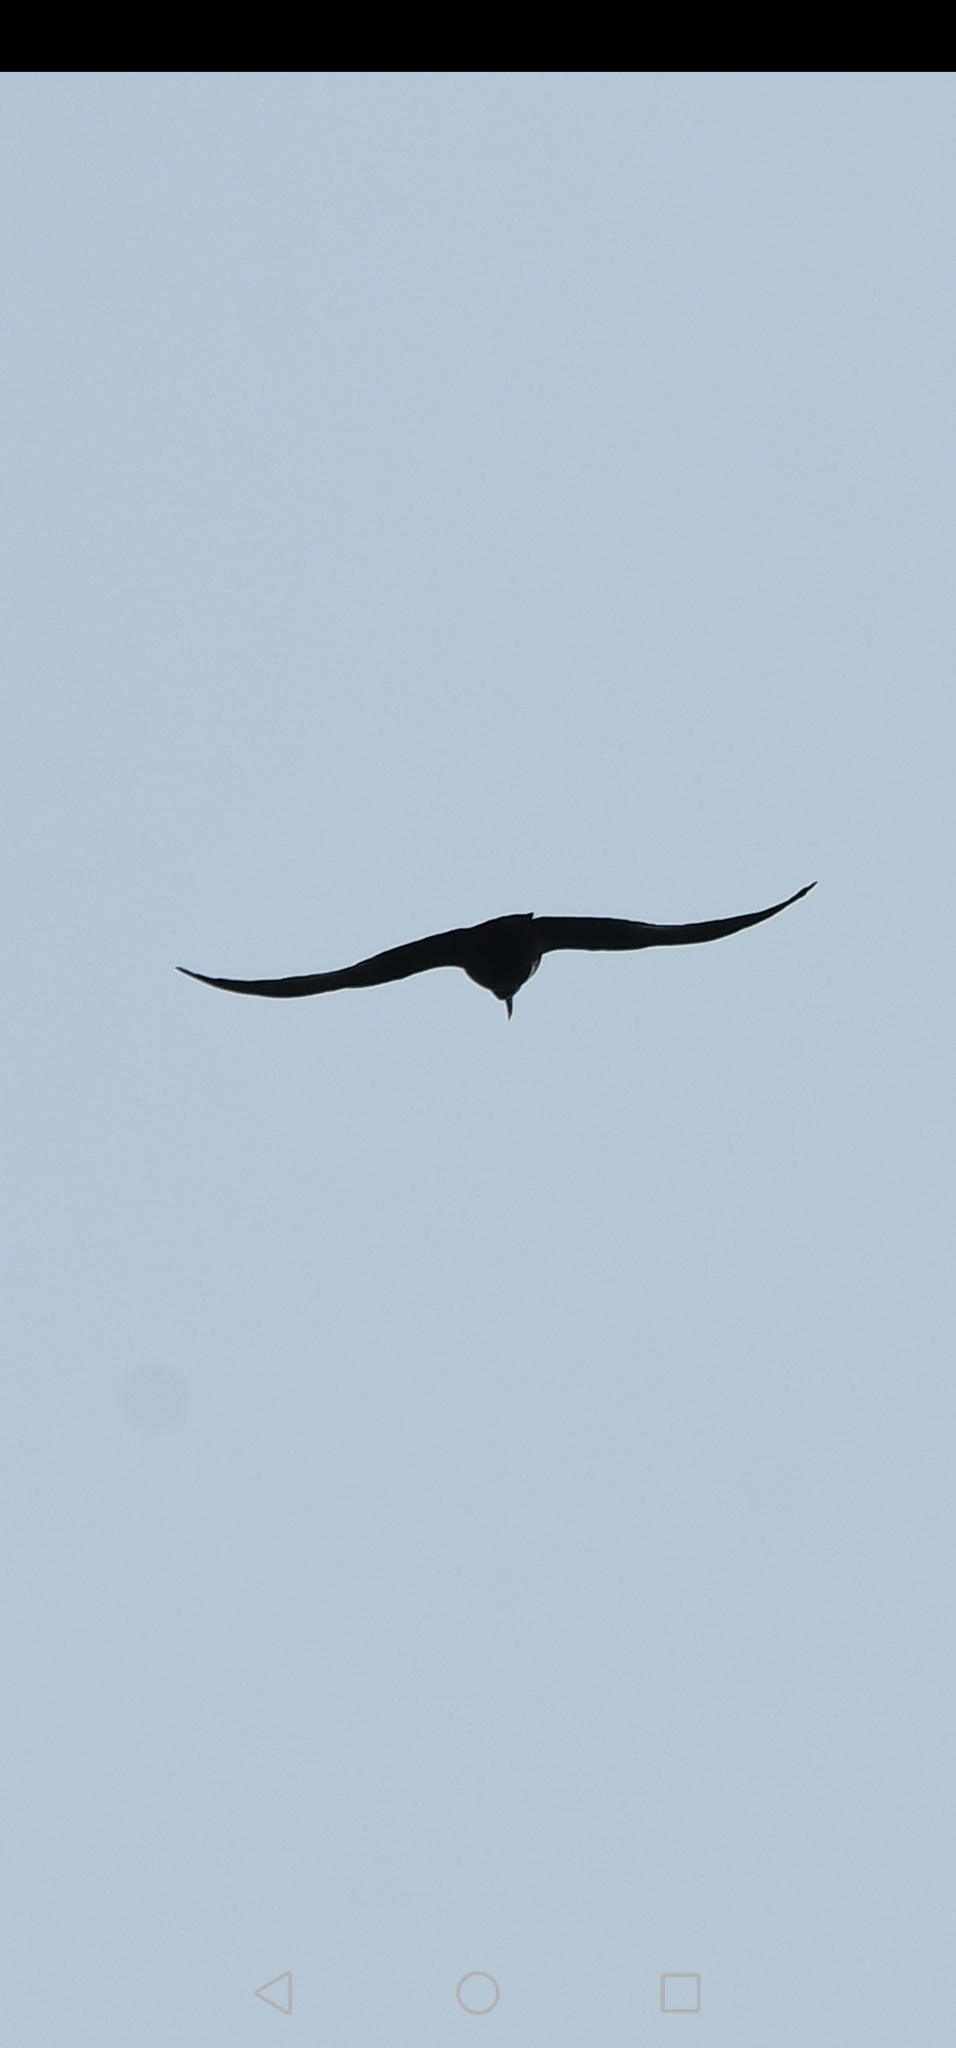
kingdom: Animalia
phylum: Chordata
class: Aves
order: Passeriformes
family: Corvidae
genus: Pyrrhocorax
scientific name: Pyrrhocorax pyrrhocorax
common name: Red-billed chough
